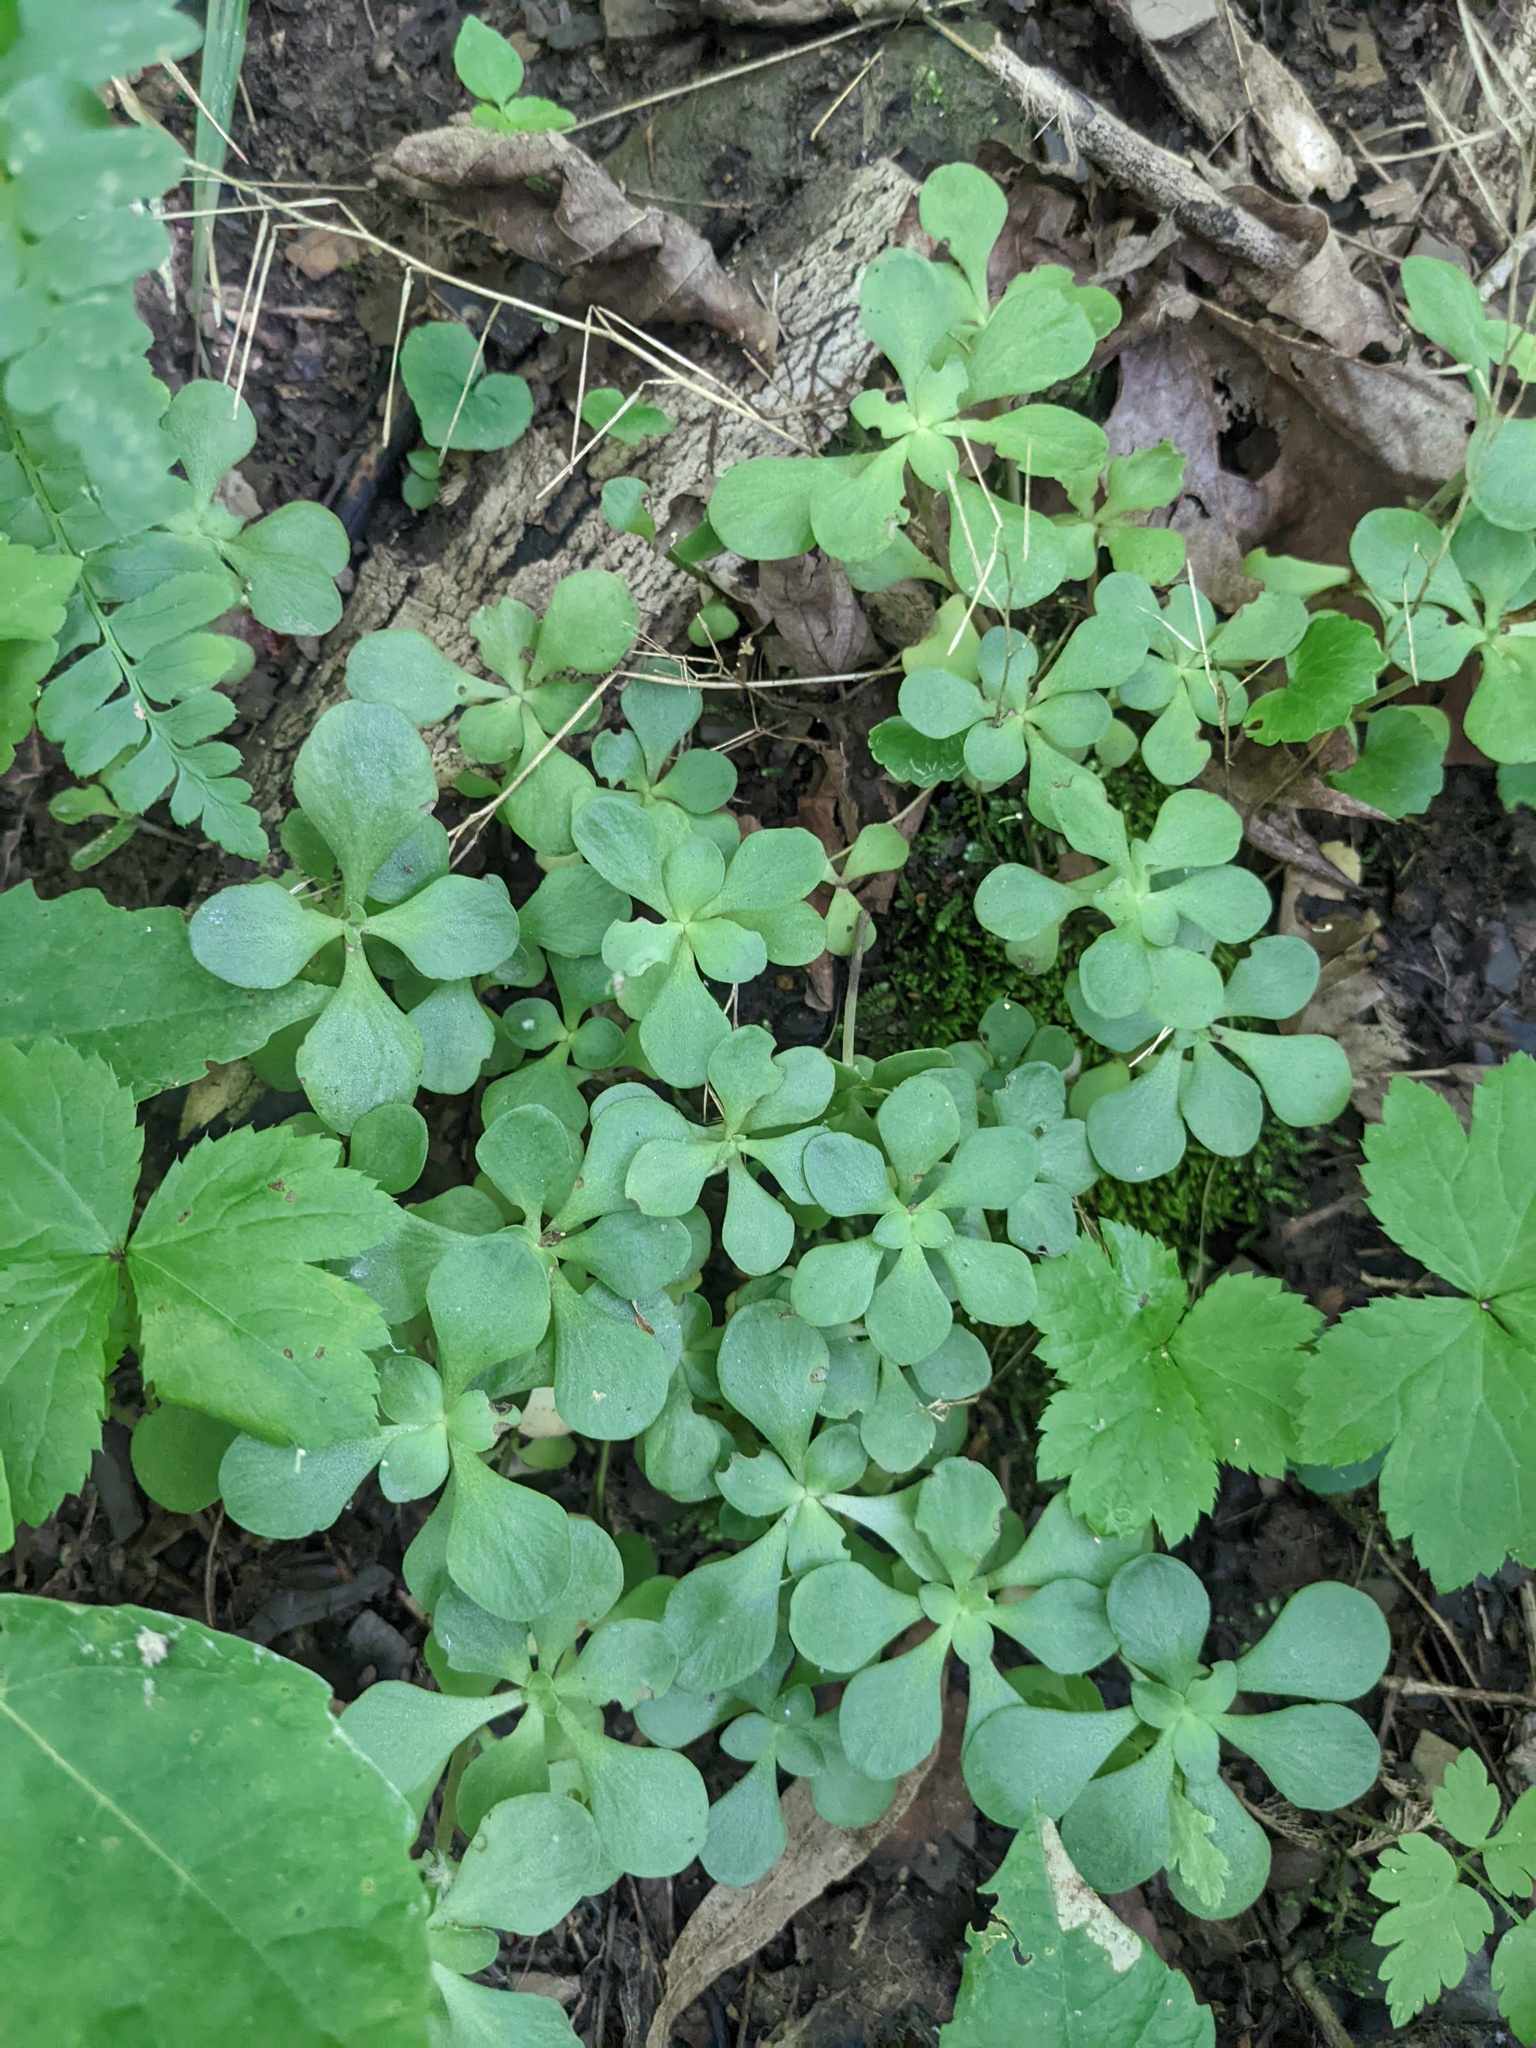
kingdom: Plantae
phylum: Tracheophyta
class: Magnoliopsida
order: Saxifragales
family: Crassulaceae
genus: Sedum
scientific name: Sedum ternatum
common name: Wild stonecrop
